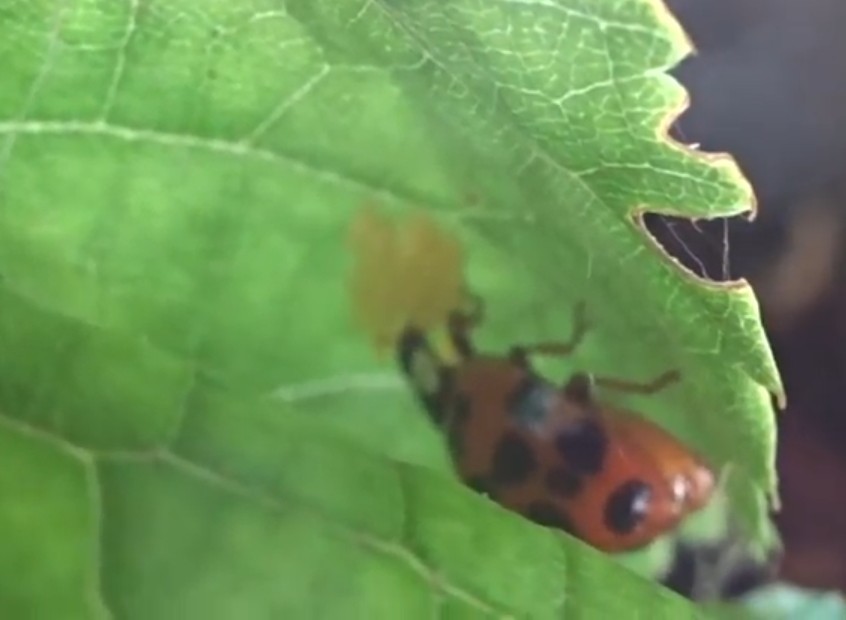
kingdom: Animalia
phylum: Arthropoda
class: Insecta
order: Coleoptera
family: Coccinellidae
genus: Harmonia
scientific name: Harmonia axyridis
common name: Harlequin ladybird
